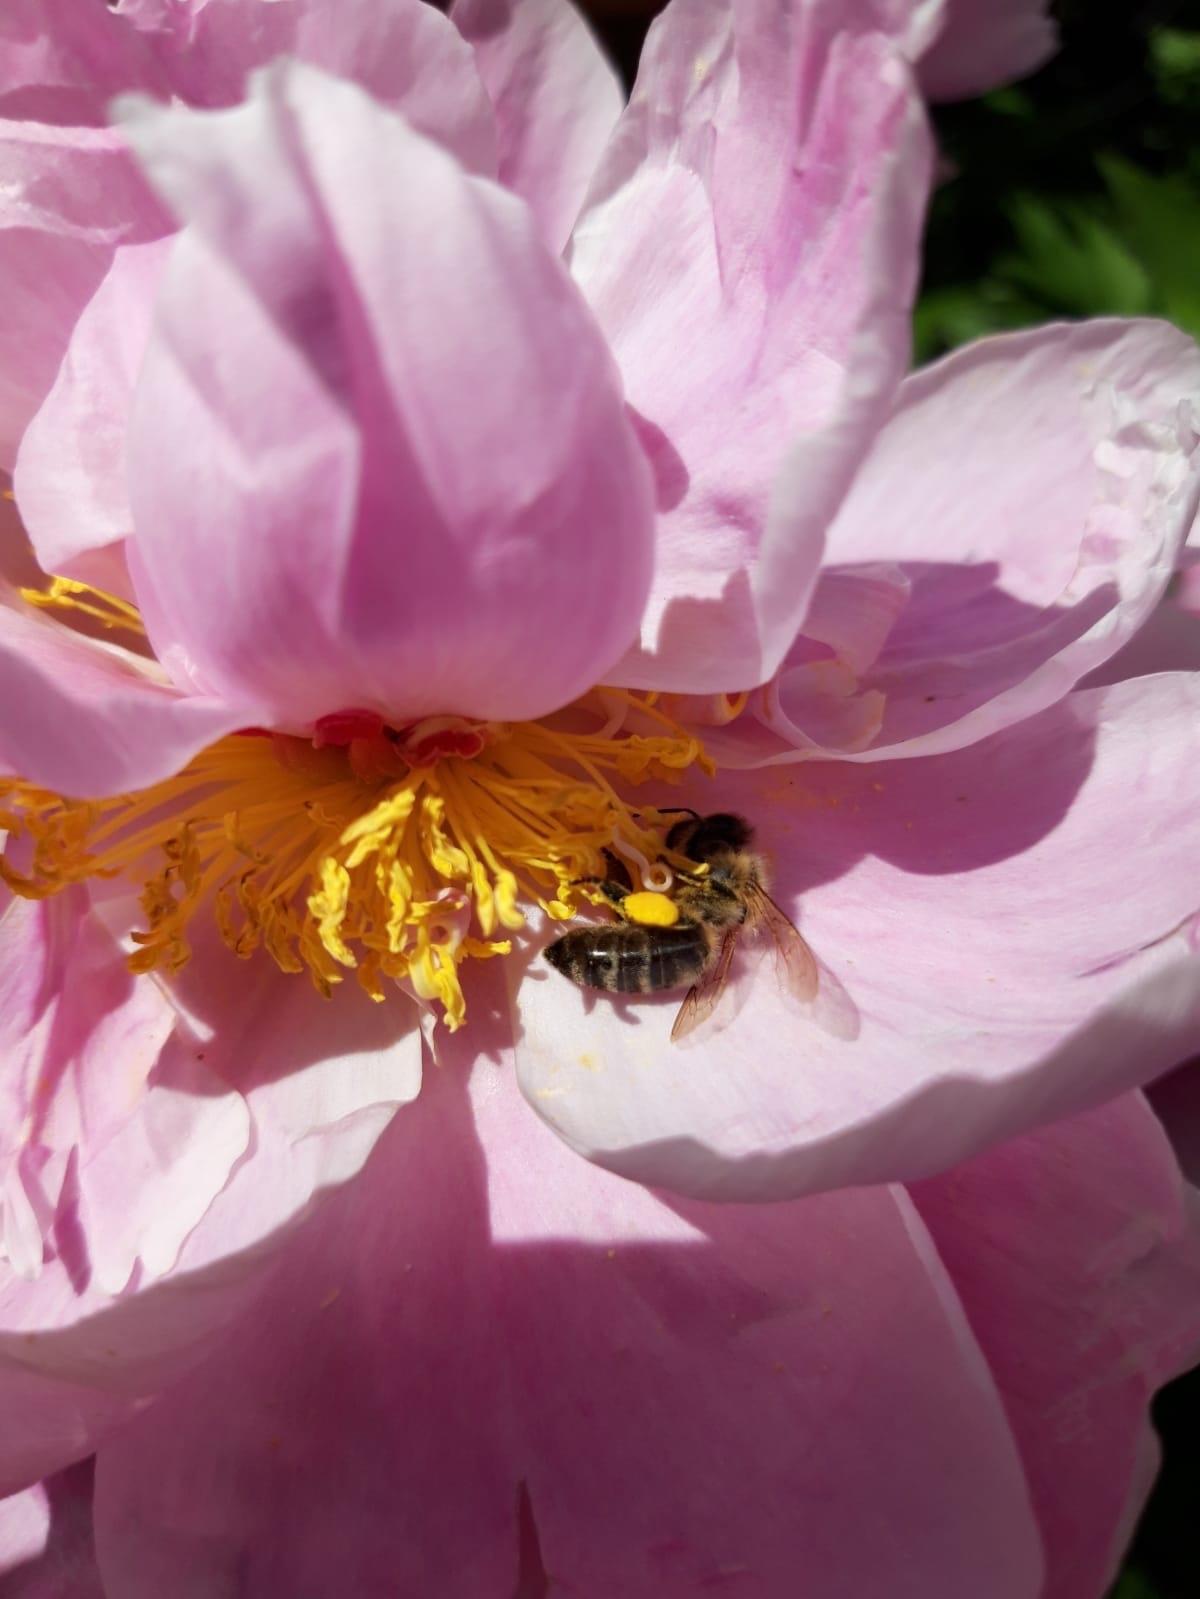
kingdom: Animalia
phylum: Arthropoda
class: Insecta
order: Hymenoptera
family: Apidae
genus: Apis
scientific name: Apis mellifera
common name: Honey bee
